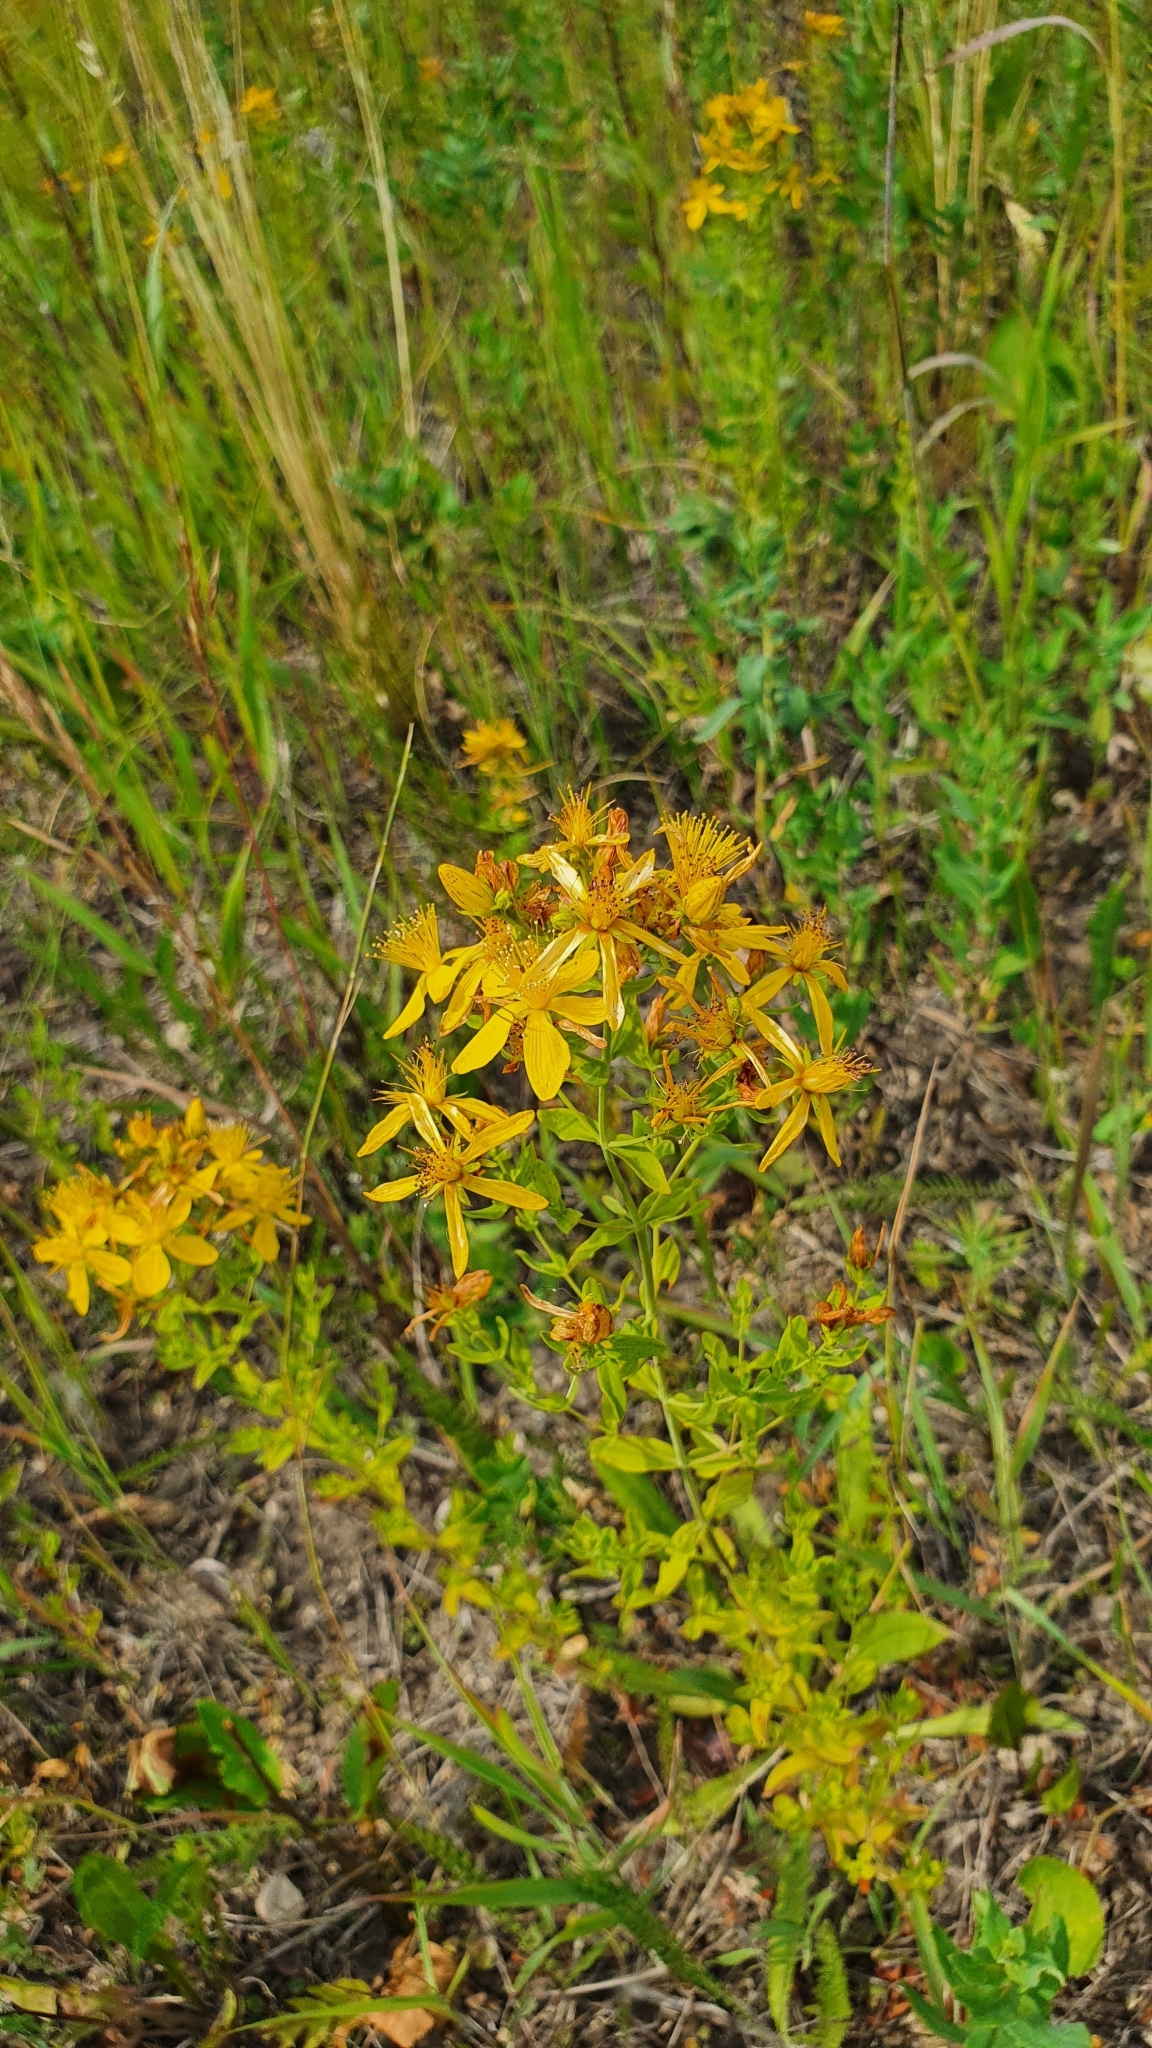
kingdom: Plantae
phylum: Tracheophyta
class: Magnoliopsida
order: Malpighiales
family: Hypericaceae
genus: Hypericum
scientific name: Hypericum perforatum
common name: Common st. johnswort
